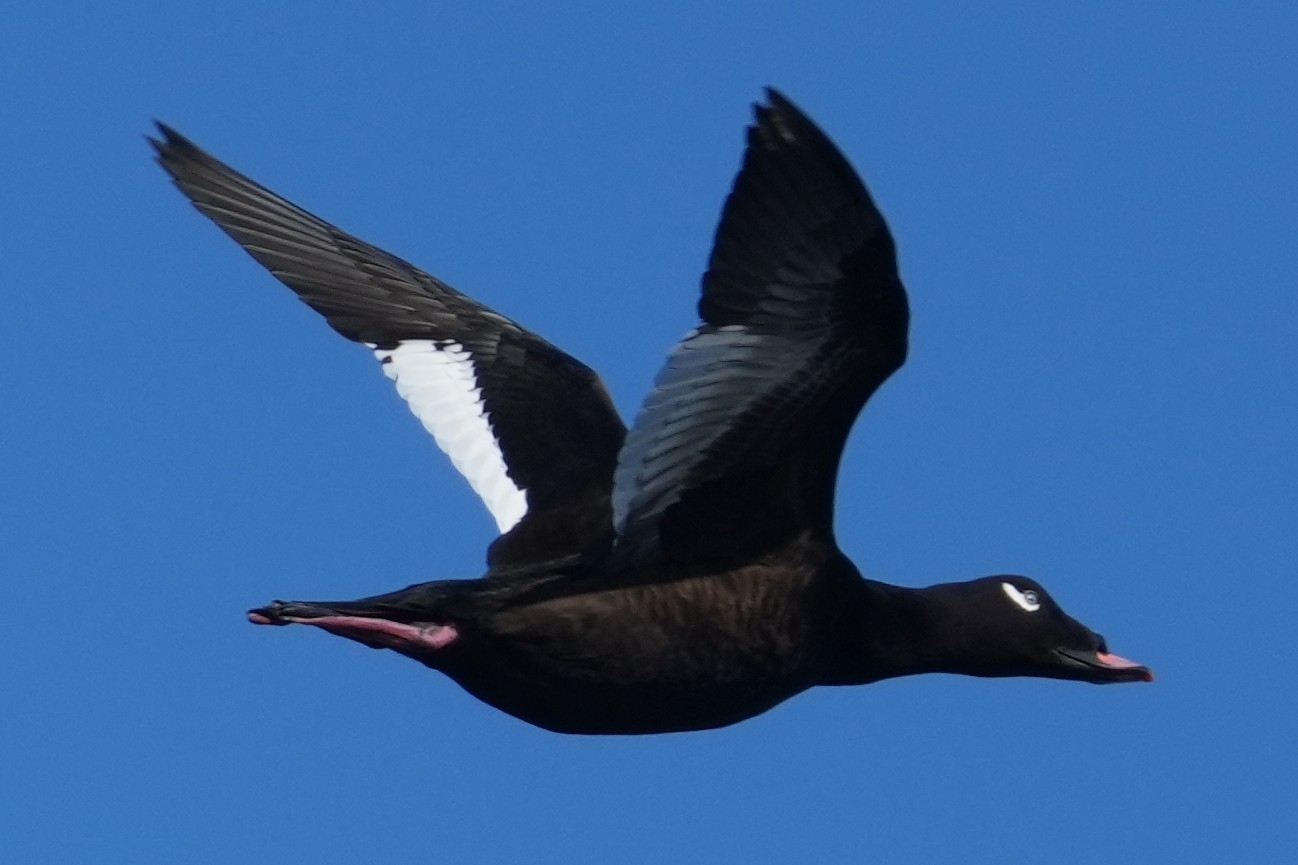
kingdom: Animalia
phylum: Chordata
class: Aves
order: Anseriformes
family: Anatidae
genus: Melanitta
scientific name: Melanitta deglandi
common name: White-winged scoter
